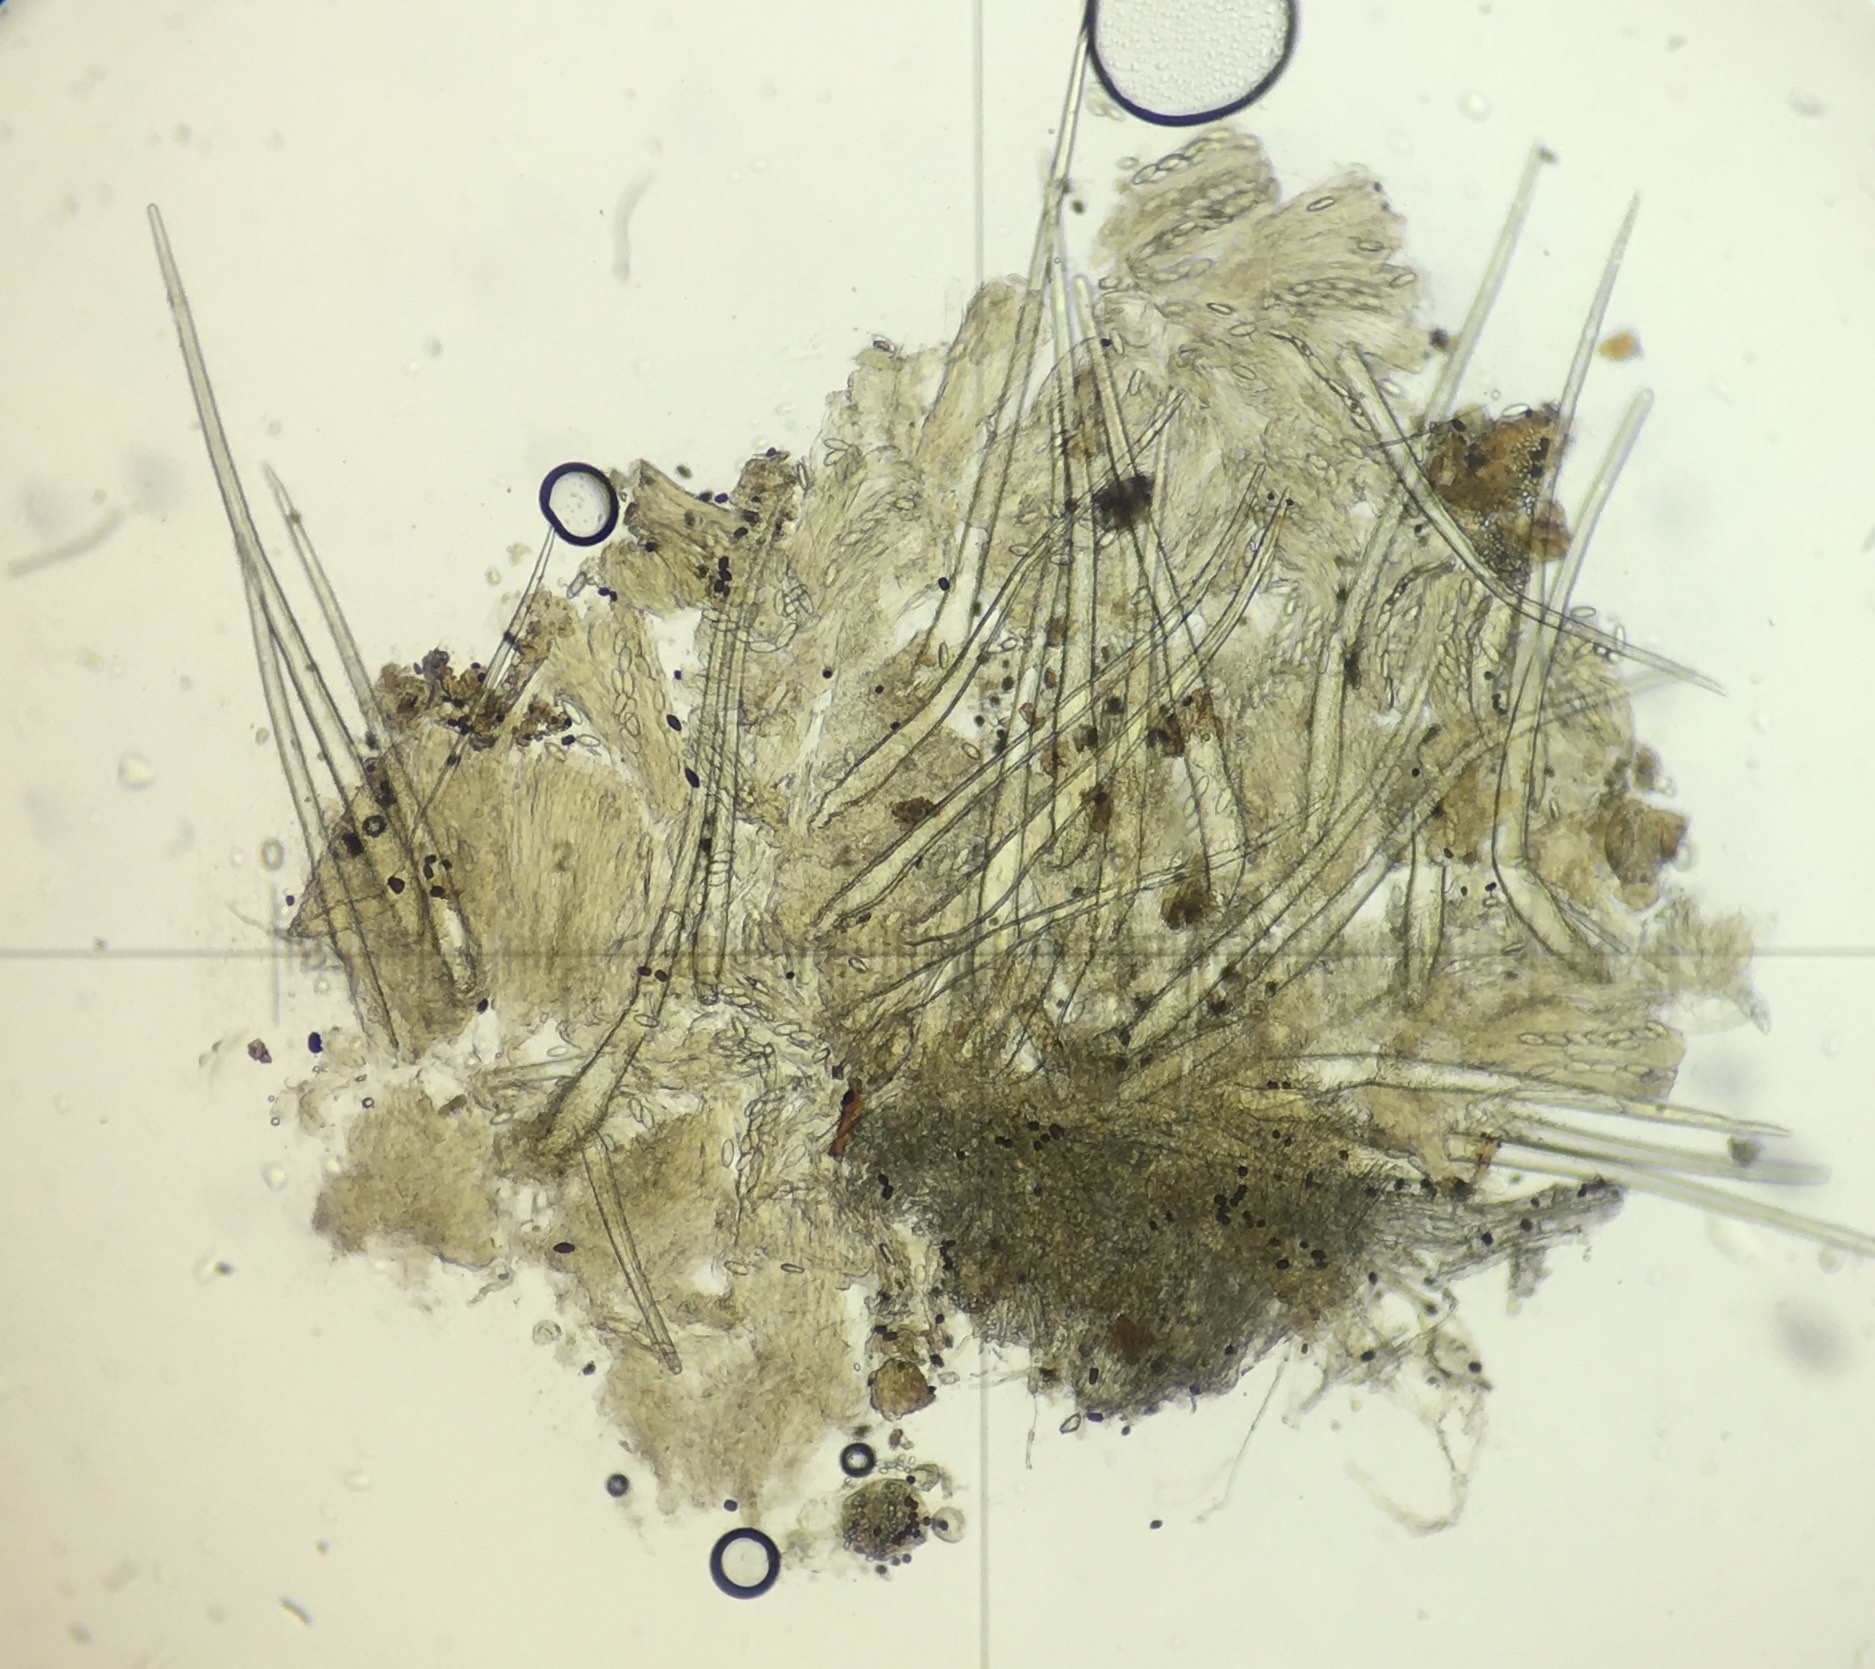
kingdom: Fungi
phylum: Ascomycota
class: Pezizomycetes
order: Pezizales
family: Ascodesmidaceae
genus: Lasiobolus
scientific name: Lasiobolus cuniculi
